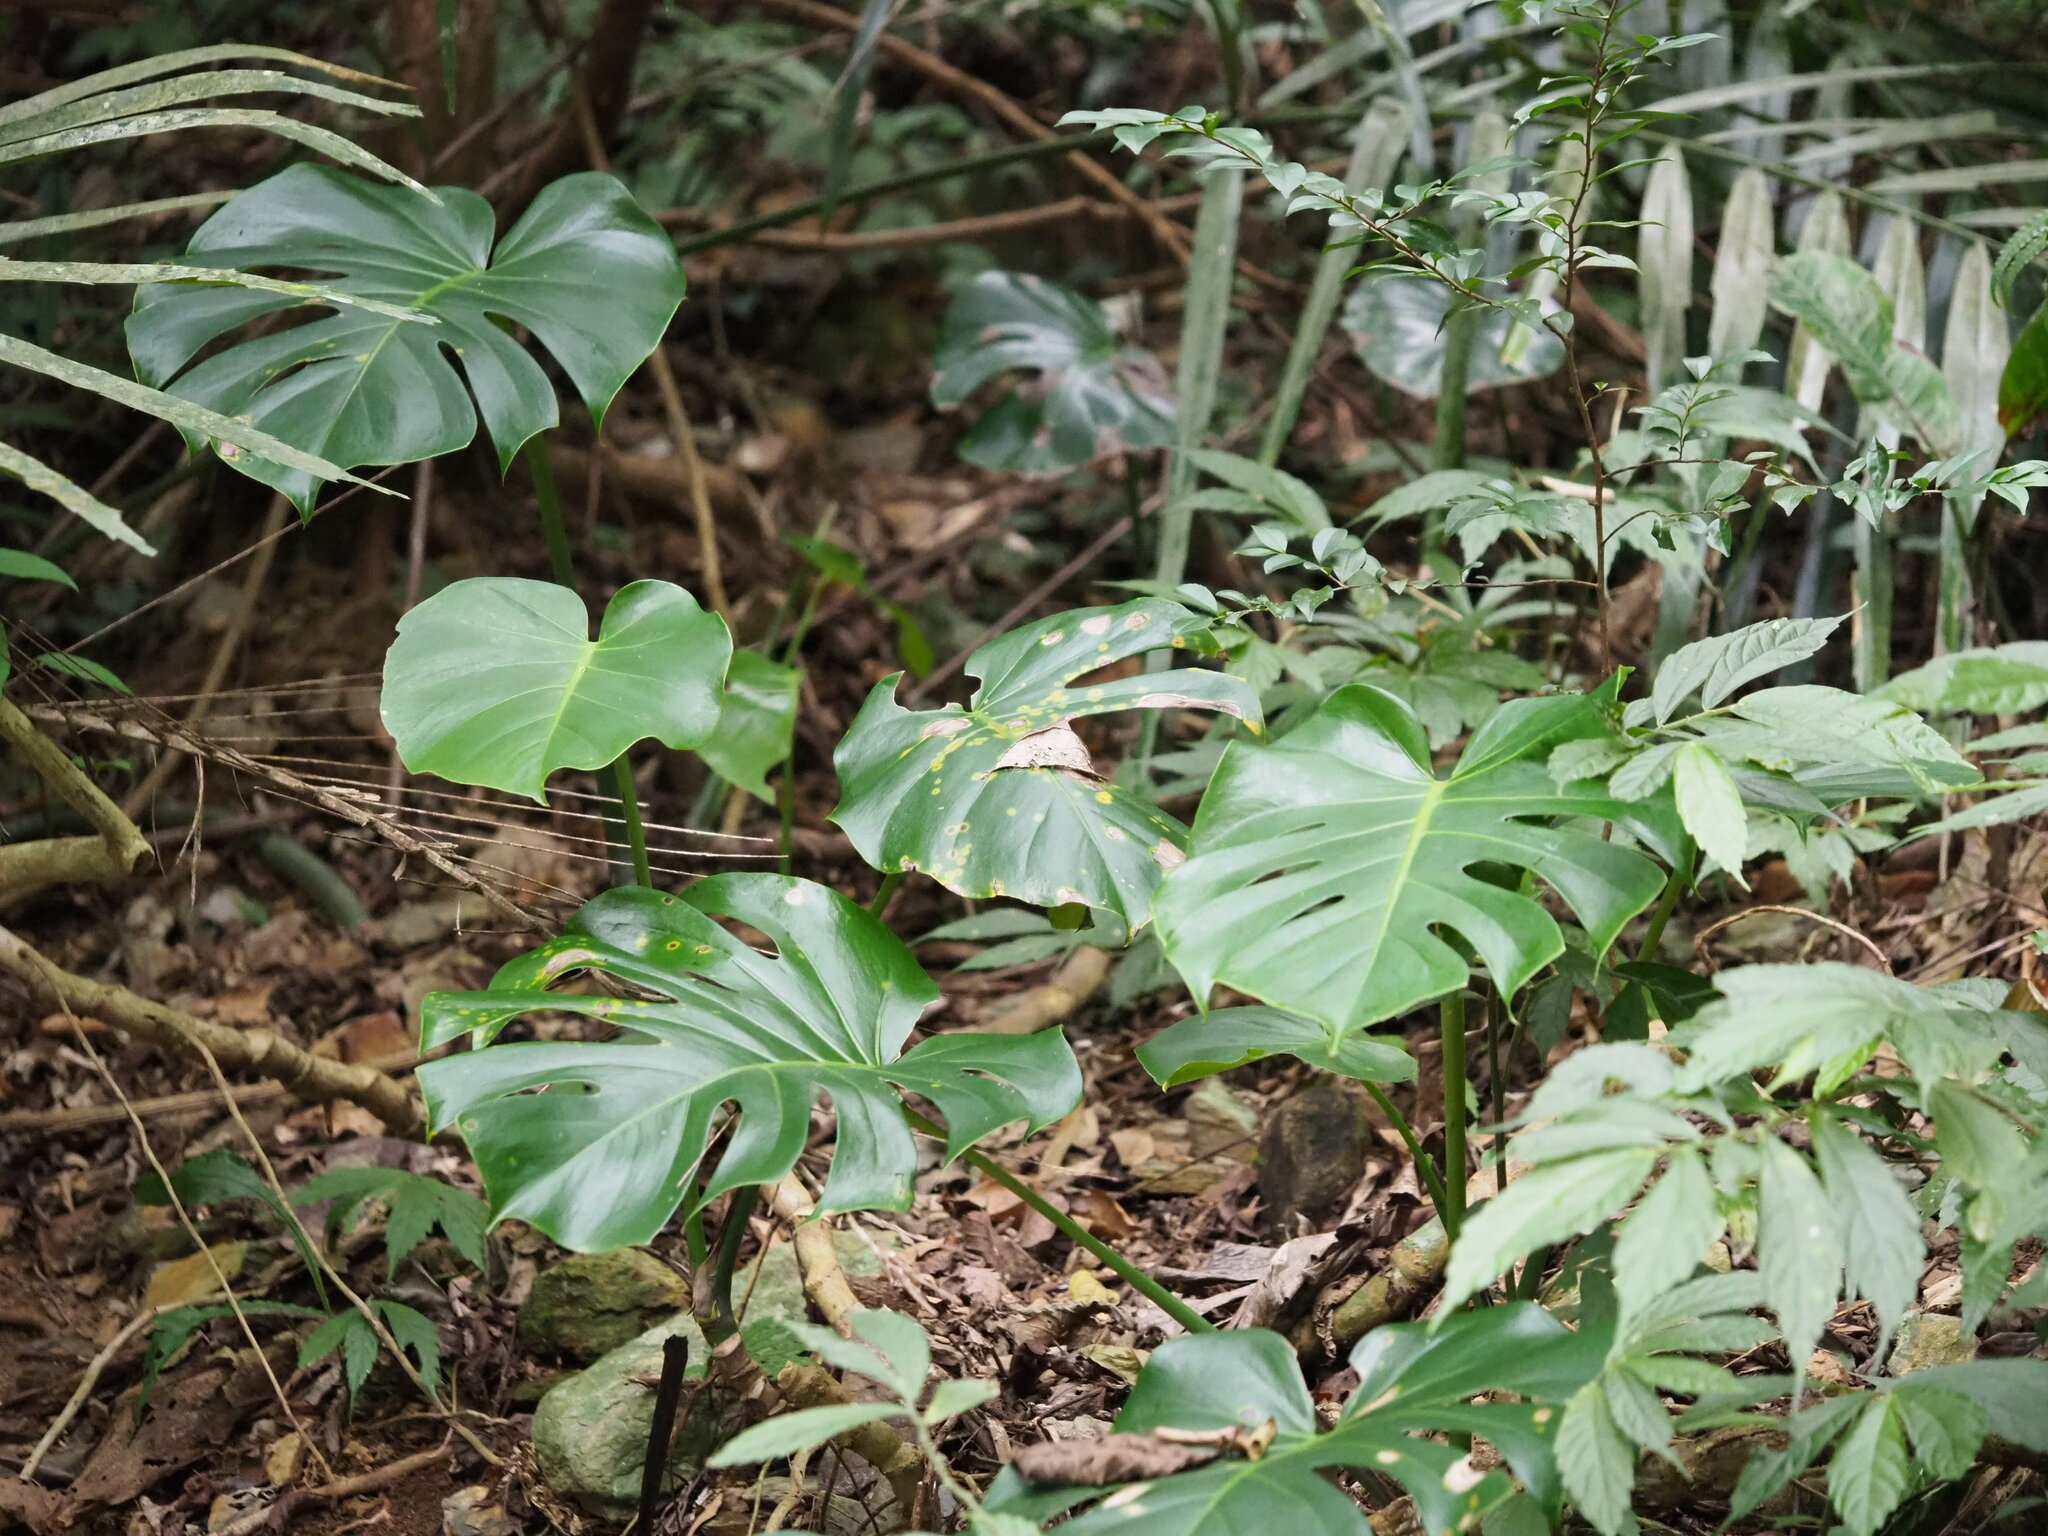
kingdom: Plantae
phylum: Tracheophyta
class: Liliopsida
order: Alismatales
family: Araceae
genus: Monstera
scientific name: Monstera deliciosa
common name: Cut-leaf-philodendron
